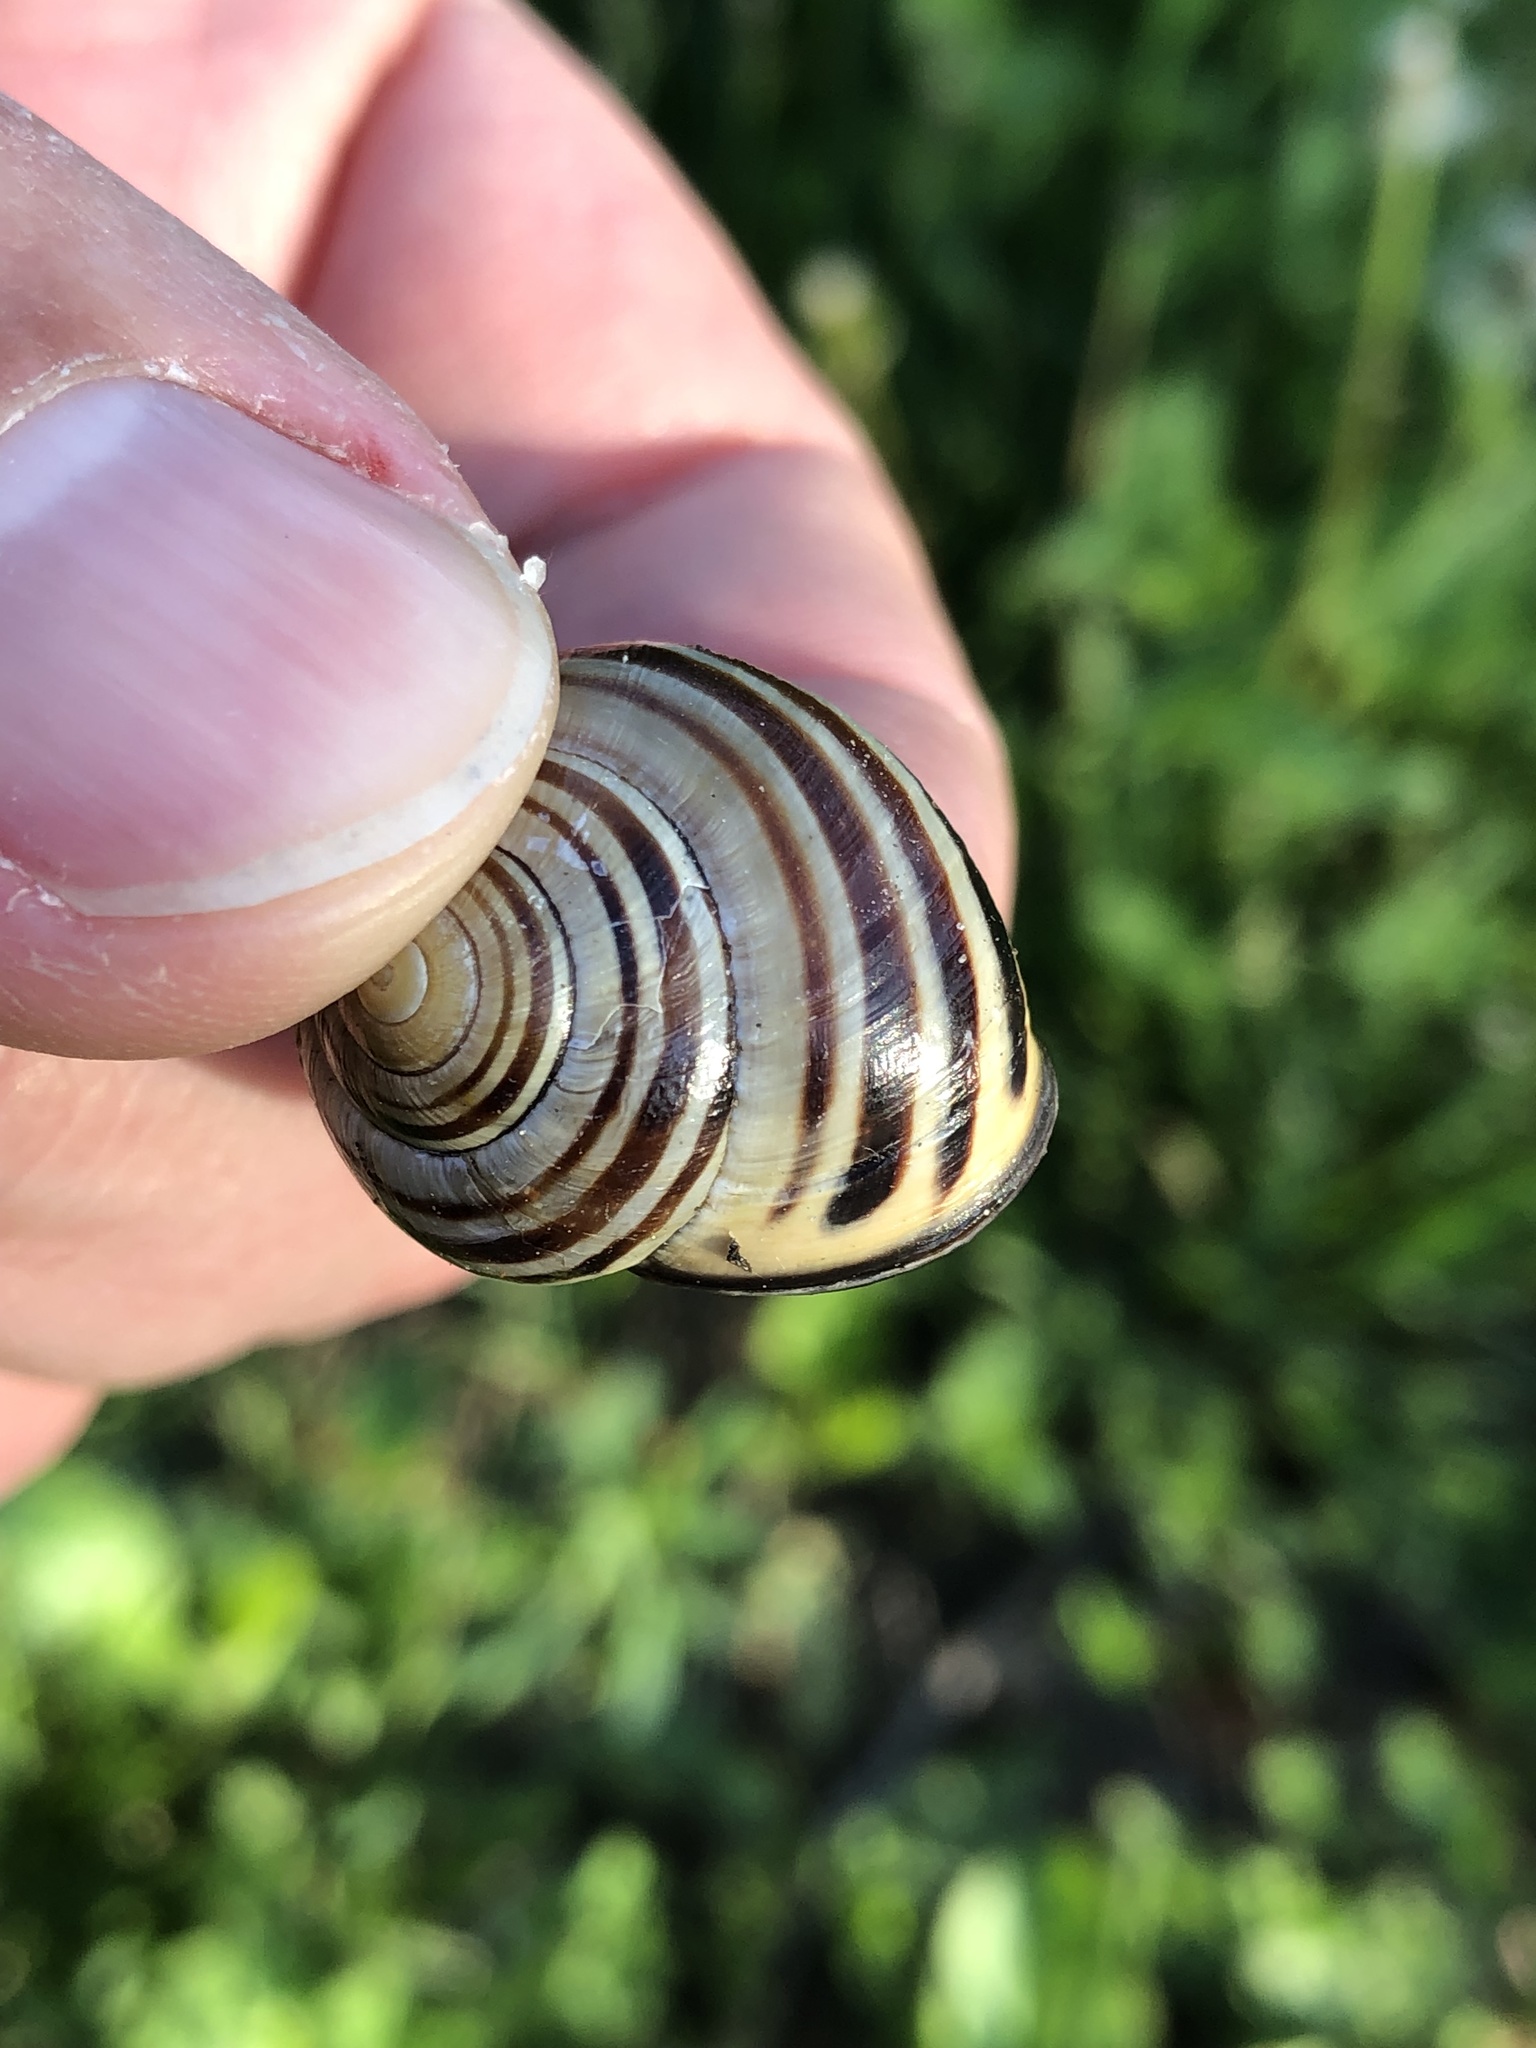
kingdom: Animalia
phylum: Mollusca
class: Gastropoda
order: Stylommatophora
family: Helicidae
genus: Cepaea
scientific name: Cepaea nemoralis
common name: Grovesnail
